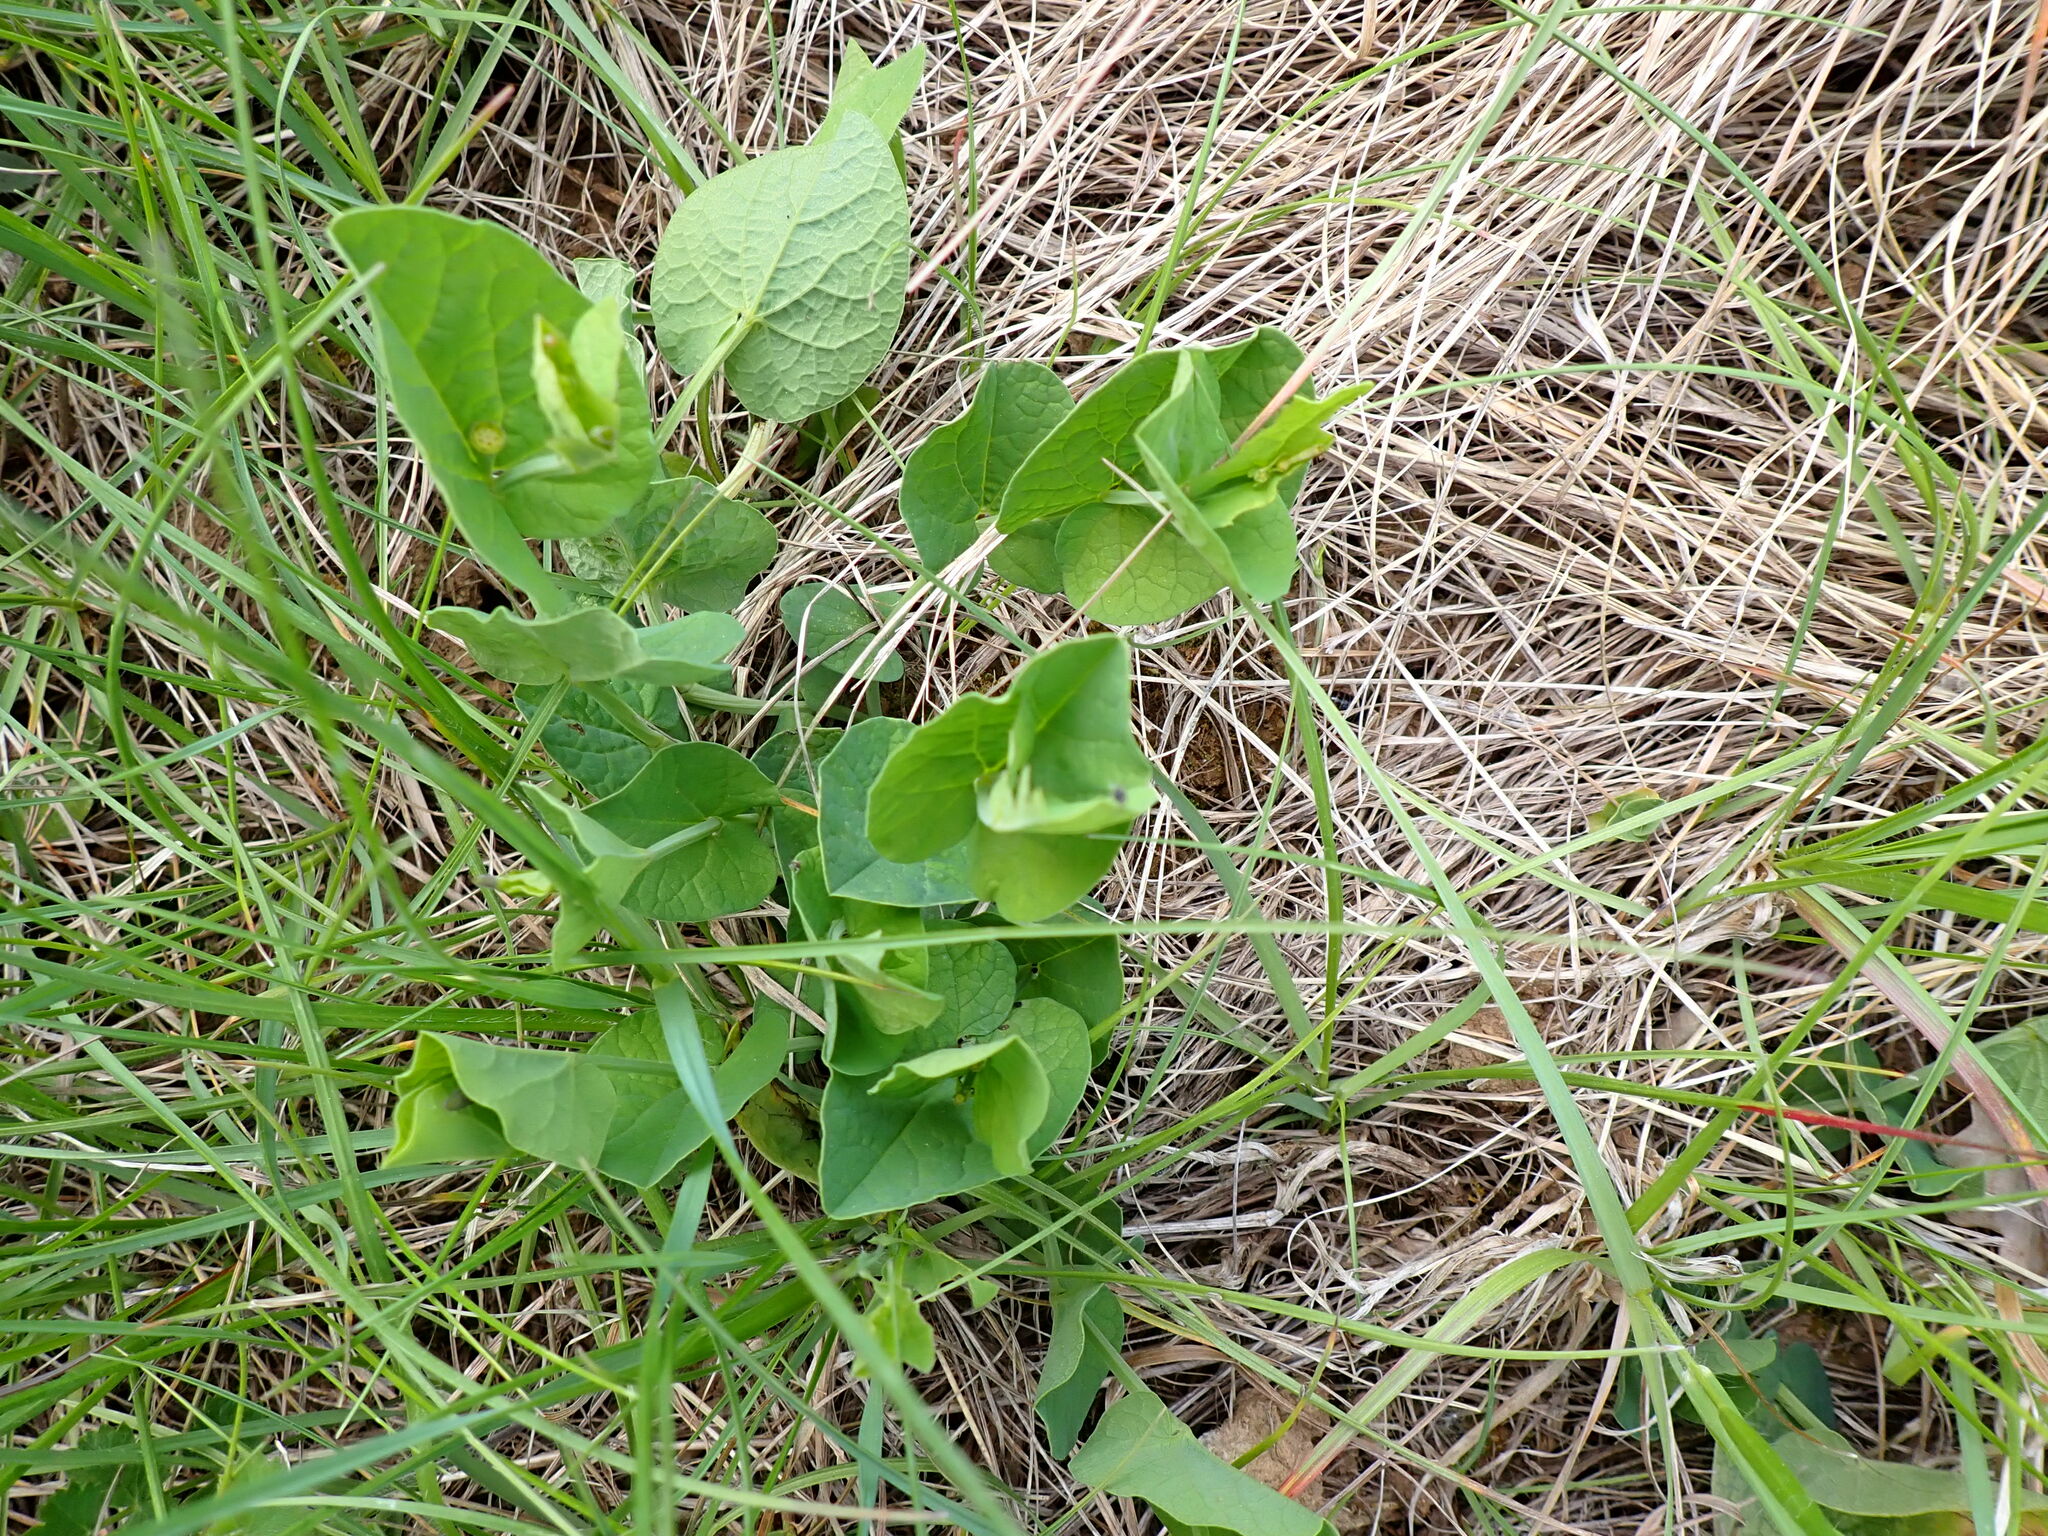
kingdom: Plantae
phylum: Tracheophyta
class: Magnoliopsida
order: Piperales
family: Aristolochiaceae
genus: Aristolochia
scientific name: Aristolochia rotunda
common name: Smearwort
